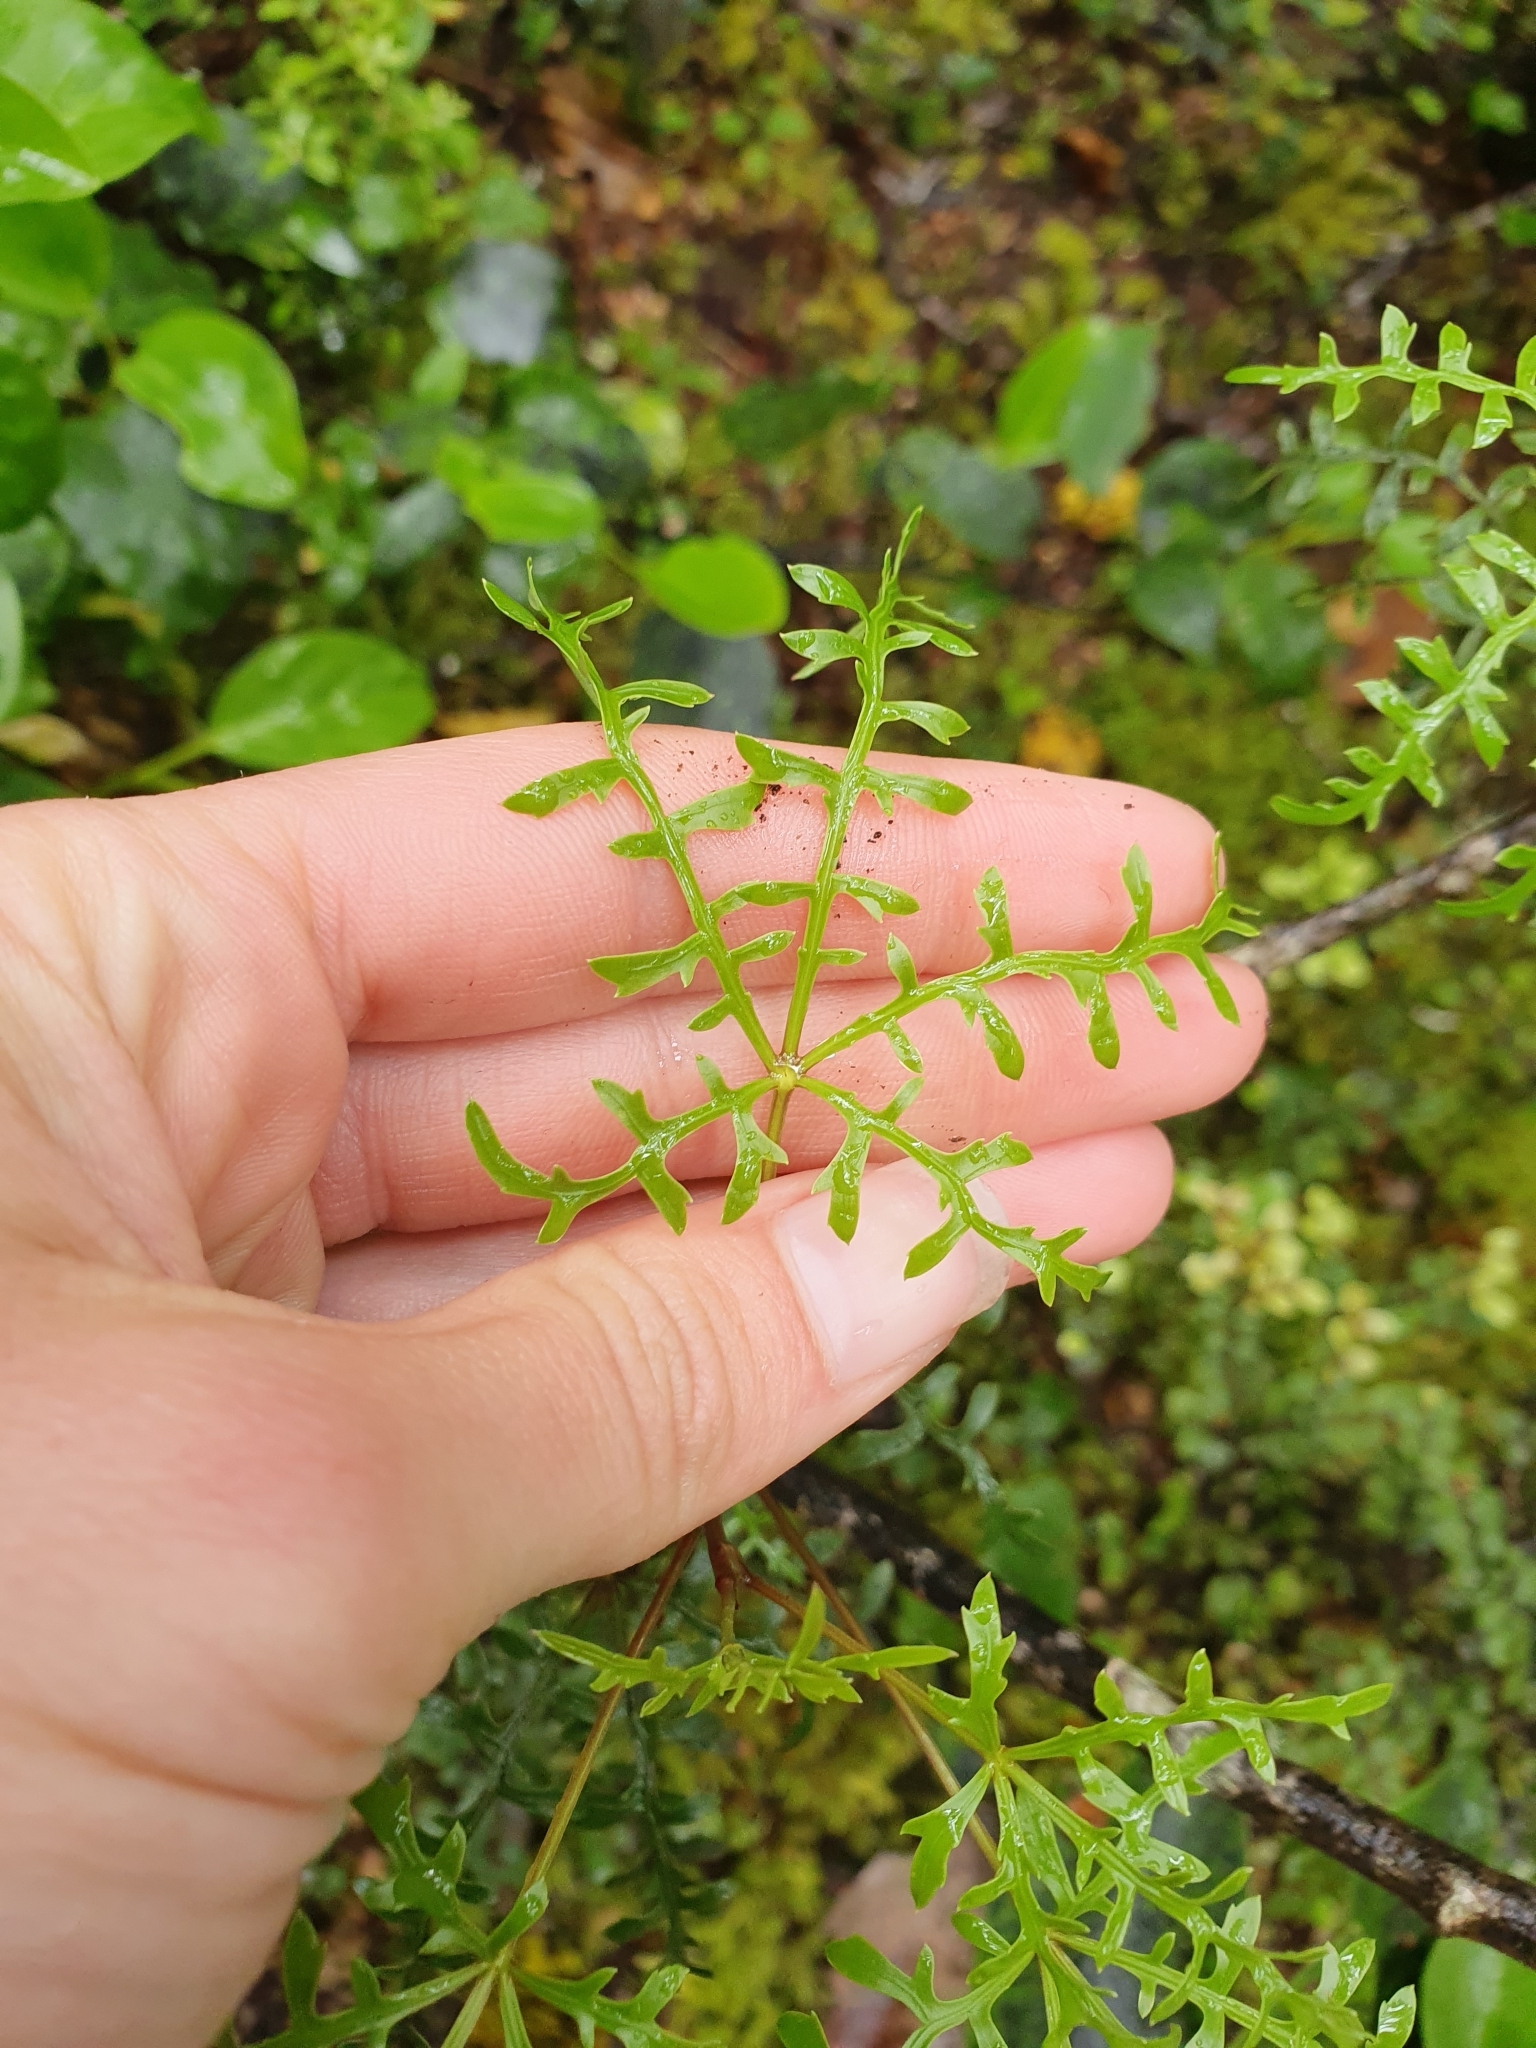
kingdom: Plantae
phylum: Tracheophyta
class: Magnoliopsida
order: Apiales
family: Araliaceae
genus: Raukaua
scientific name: Raukaua simplex
